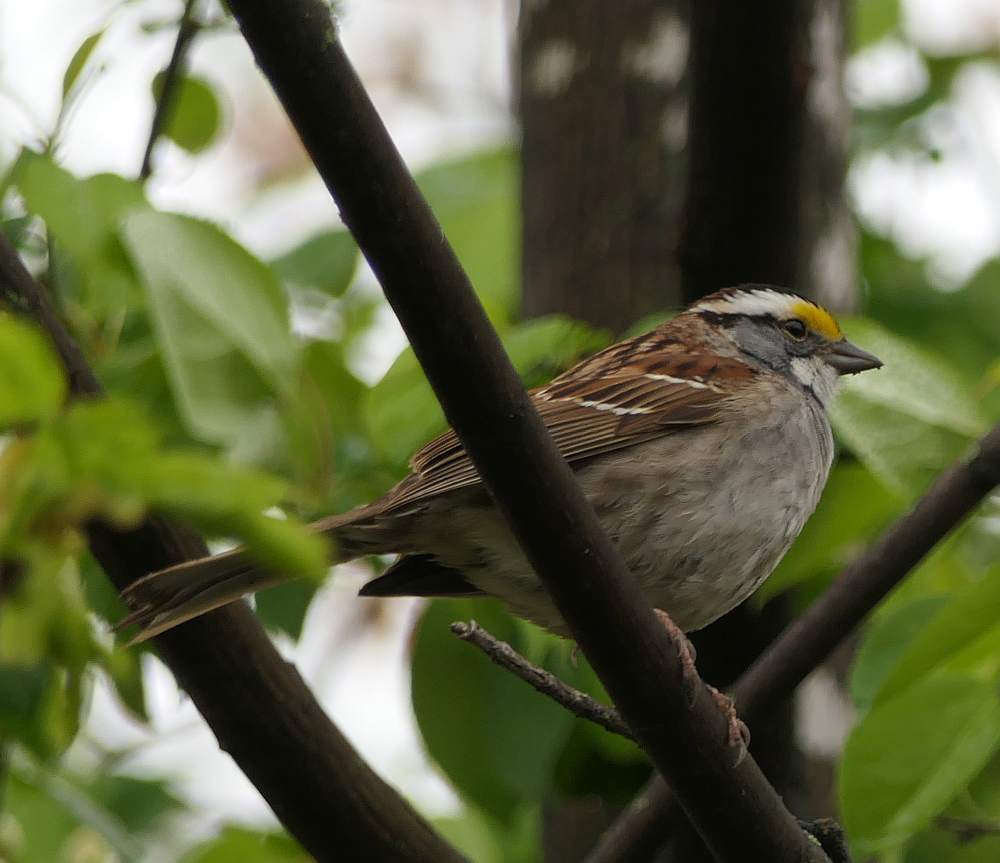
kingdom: Animalia
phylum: Chordata
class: Aves
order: Passeriformes
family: Passerellidae
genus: Zonotrichia
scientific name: Zonotrichia albicollis
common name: White-throated sparrow
